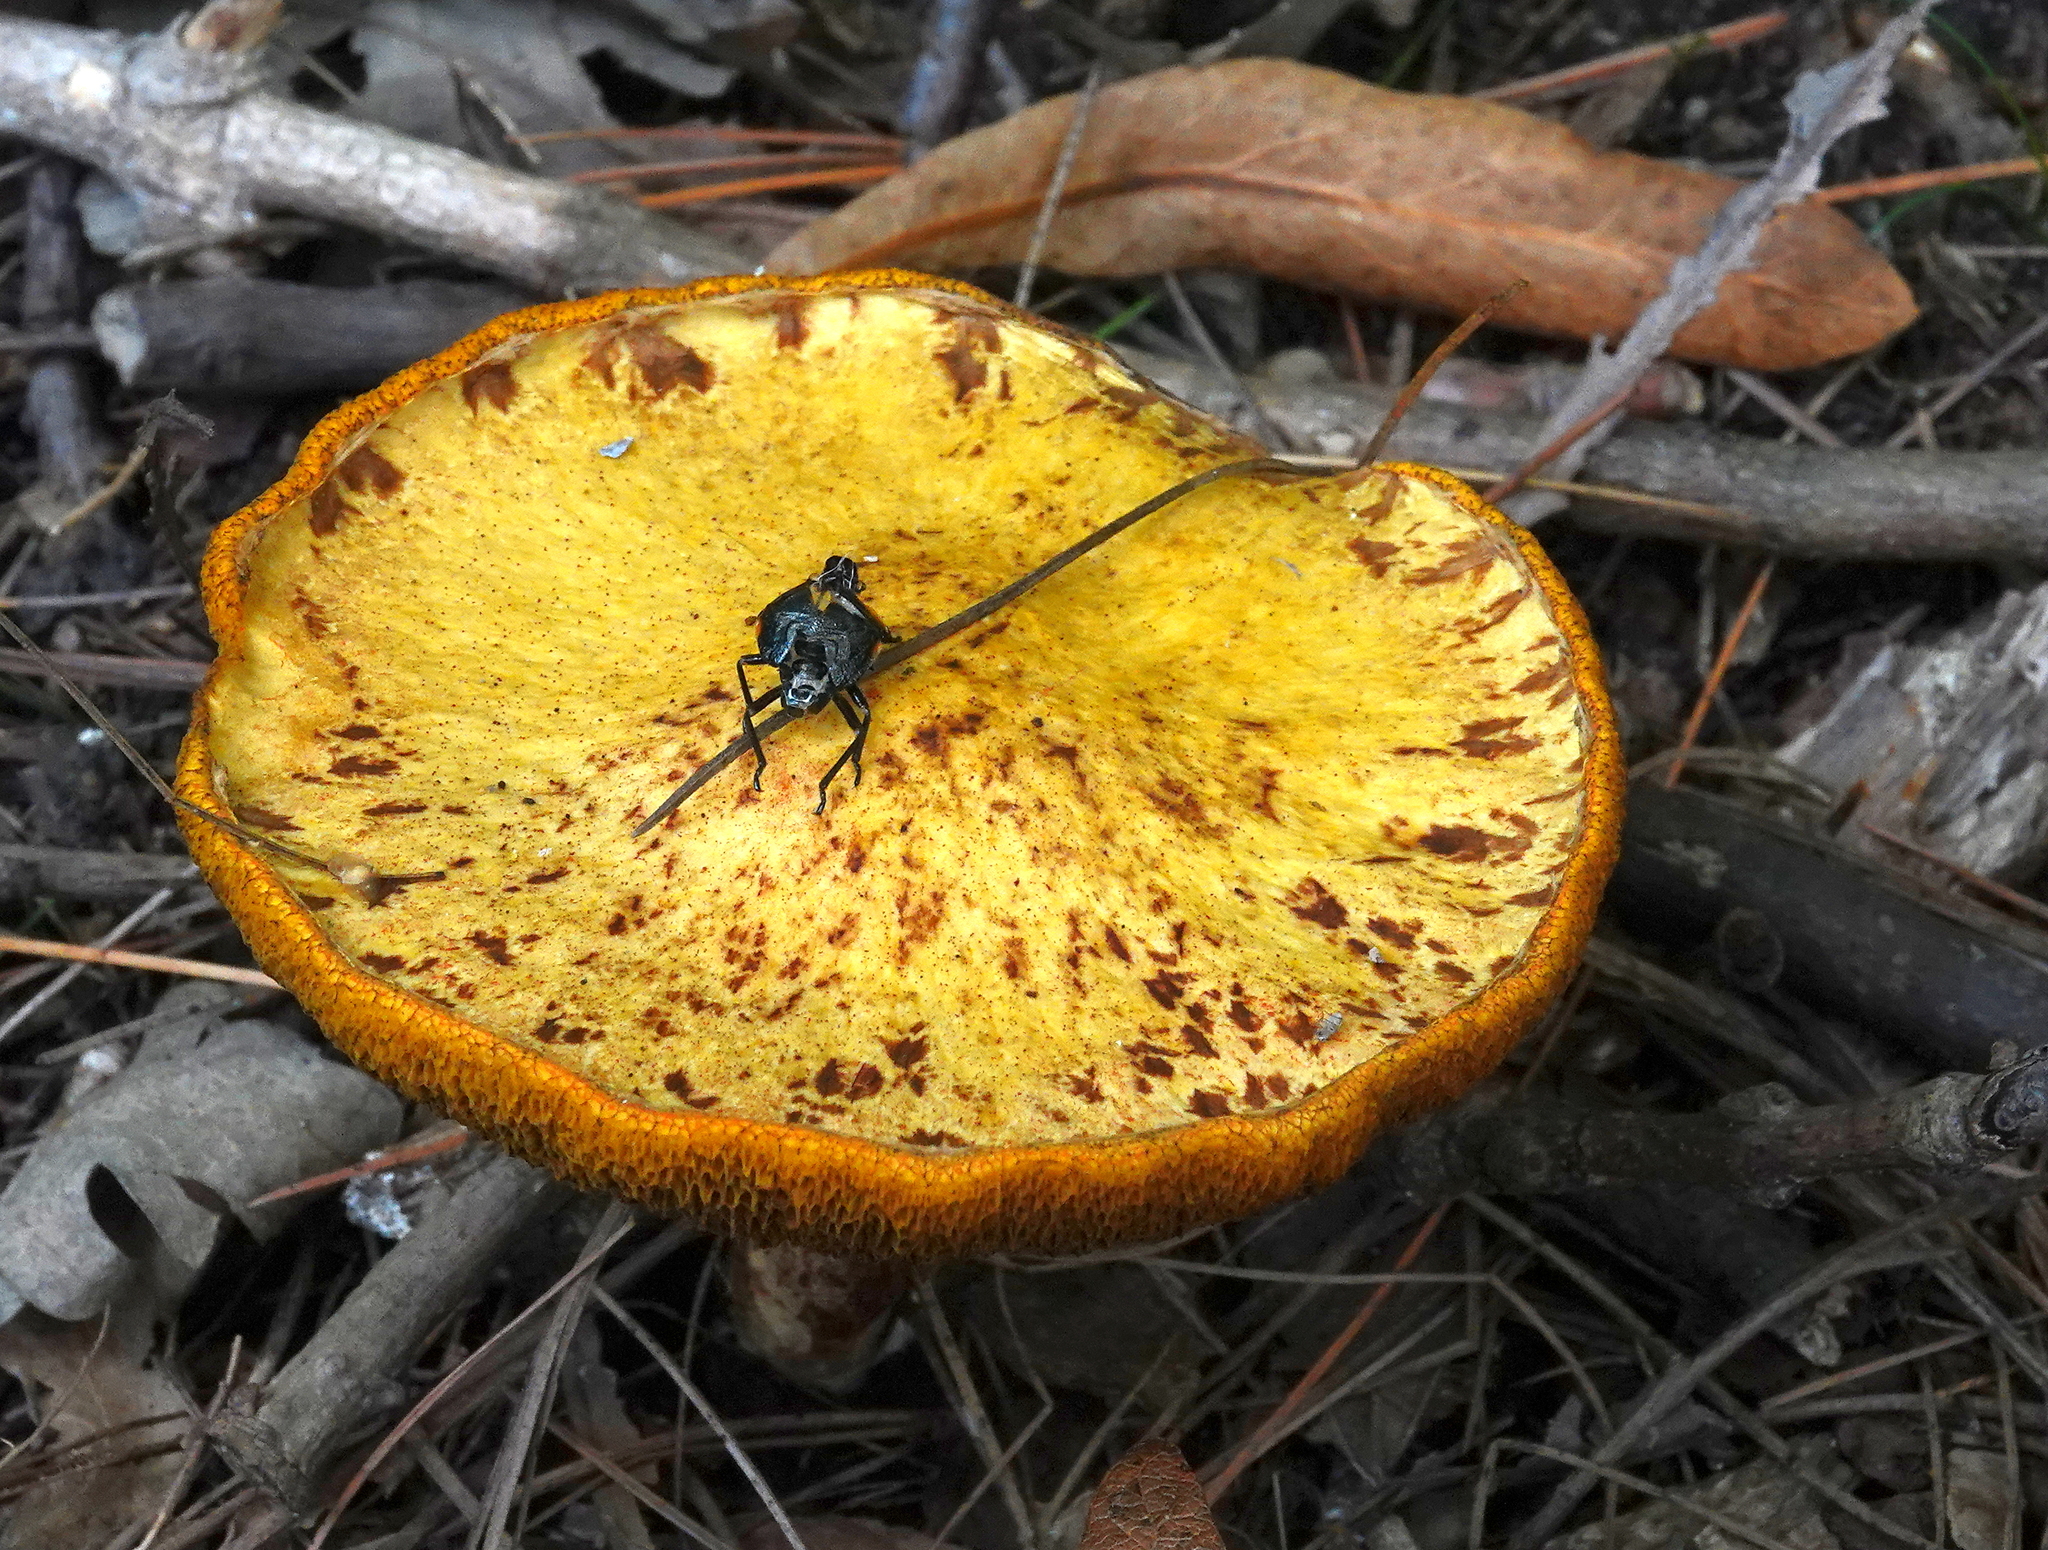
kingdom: Fungi
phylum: Basidiomycota
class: Agaricomycetes
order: Boletales
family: Suillaceae
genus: Suillus
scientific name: Suillus americanus
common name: Chicken fat mushroom
